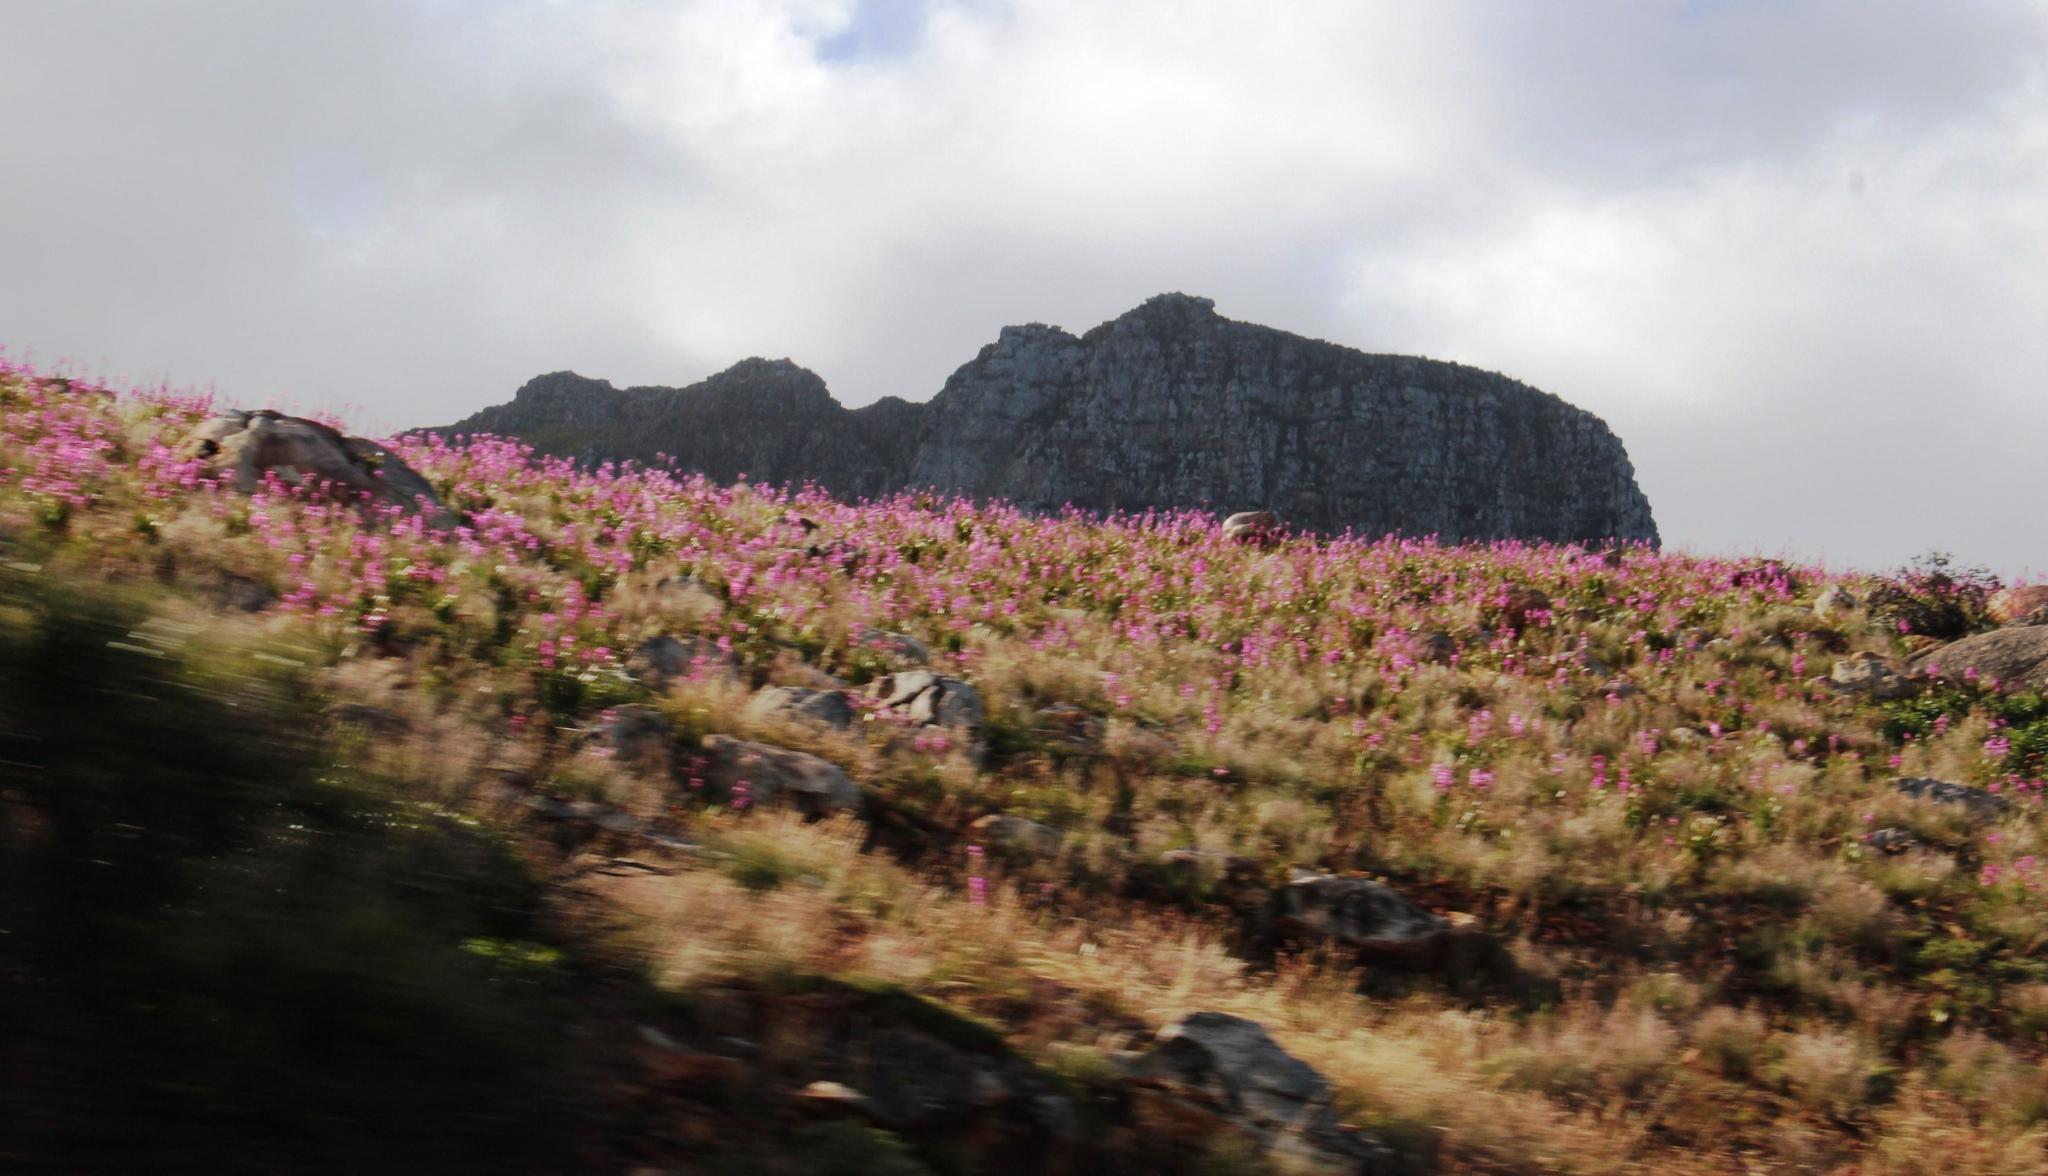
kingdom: Plantae
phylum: Tracheophyta
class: Liliopsida
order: Asparagales
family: Iridaceae
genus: Watsonia
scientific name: Watsonia borbonica
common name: Bugle-lily
